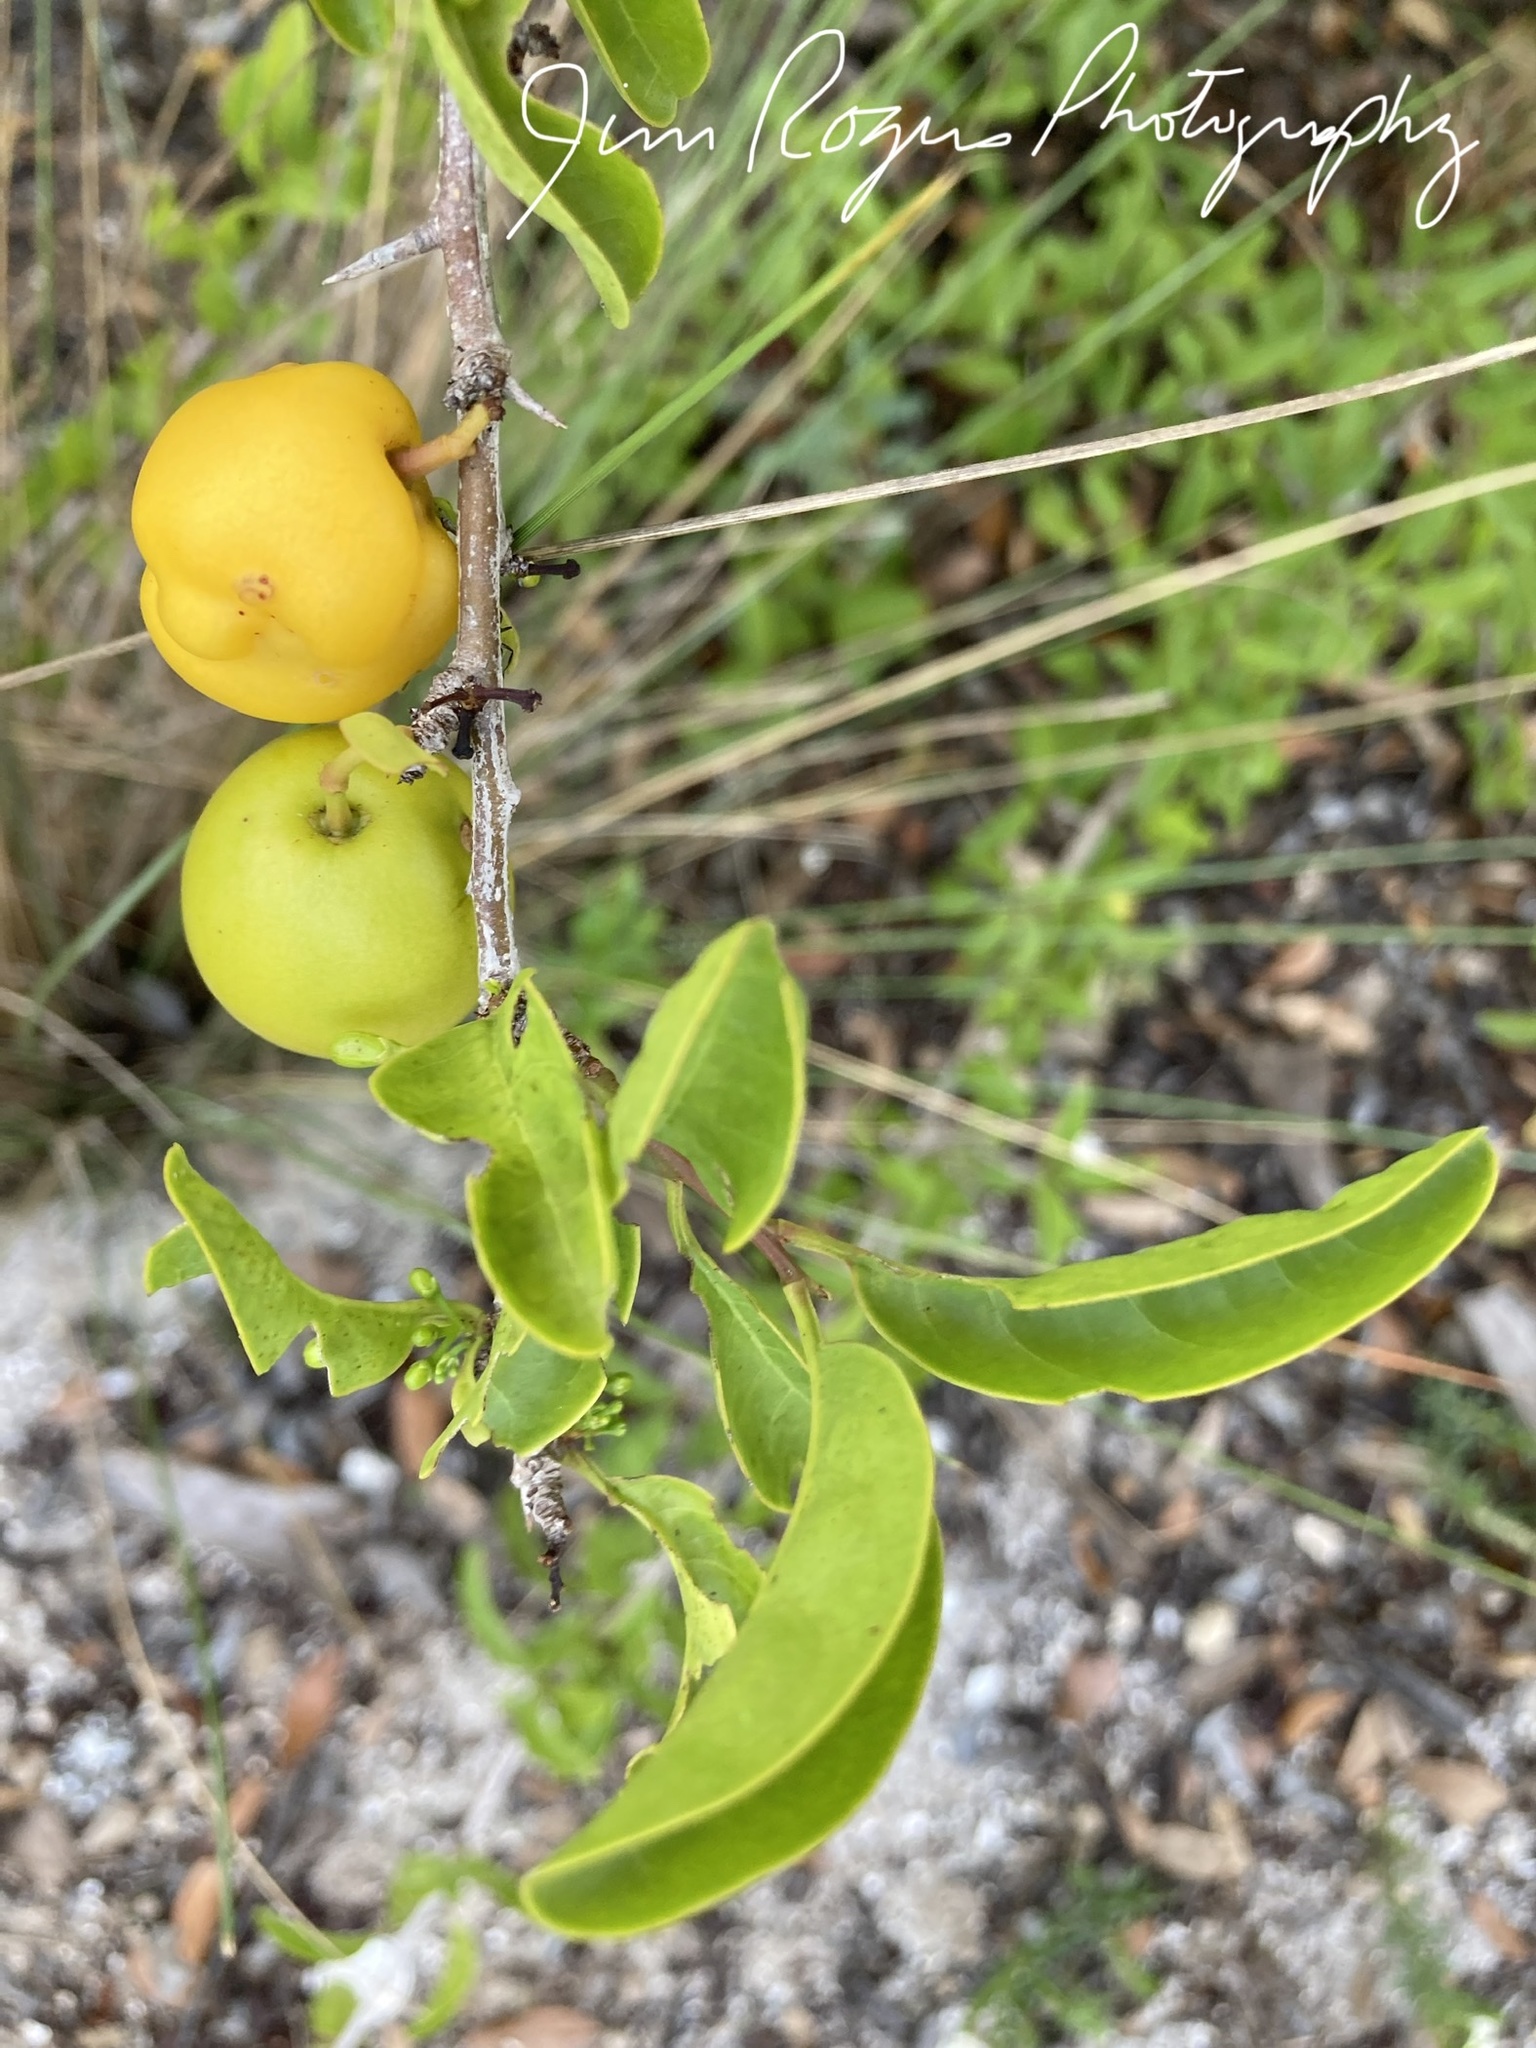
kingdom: Plantae
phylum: Tracheophyta
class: Magnoliopsida
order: Santalales
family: Ximeniaceae
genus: Ximenia
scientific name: Ximenia americana
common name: Tallowwood
